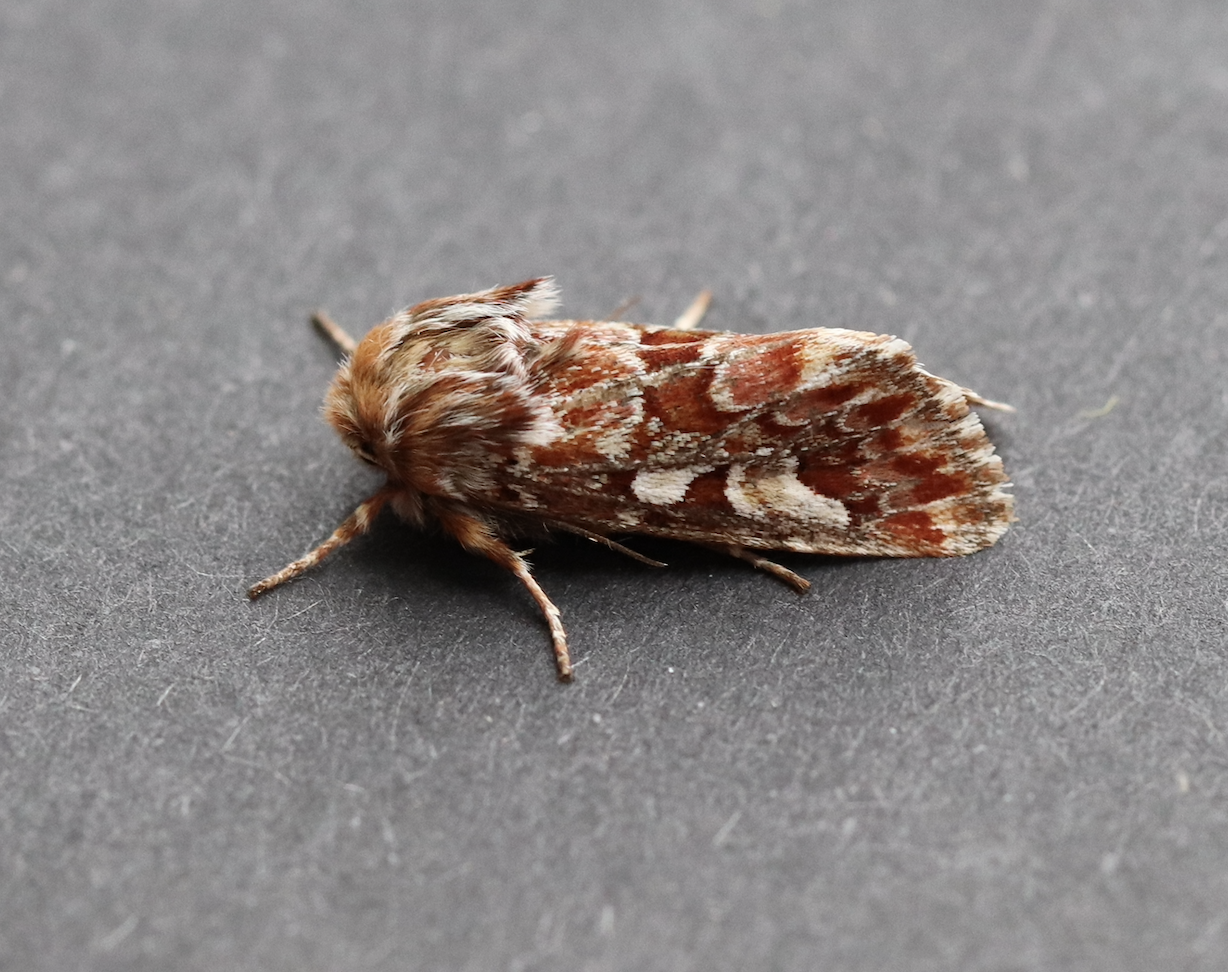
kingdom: Animalia
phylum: Arthropoda
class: Insecta
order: Lepidoptera
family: Noctuidae
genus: Panolis
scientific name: Panolis flammea
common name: Pine beauty
